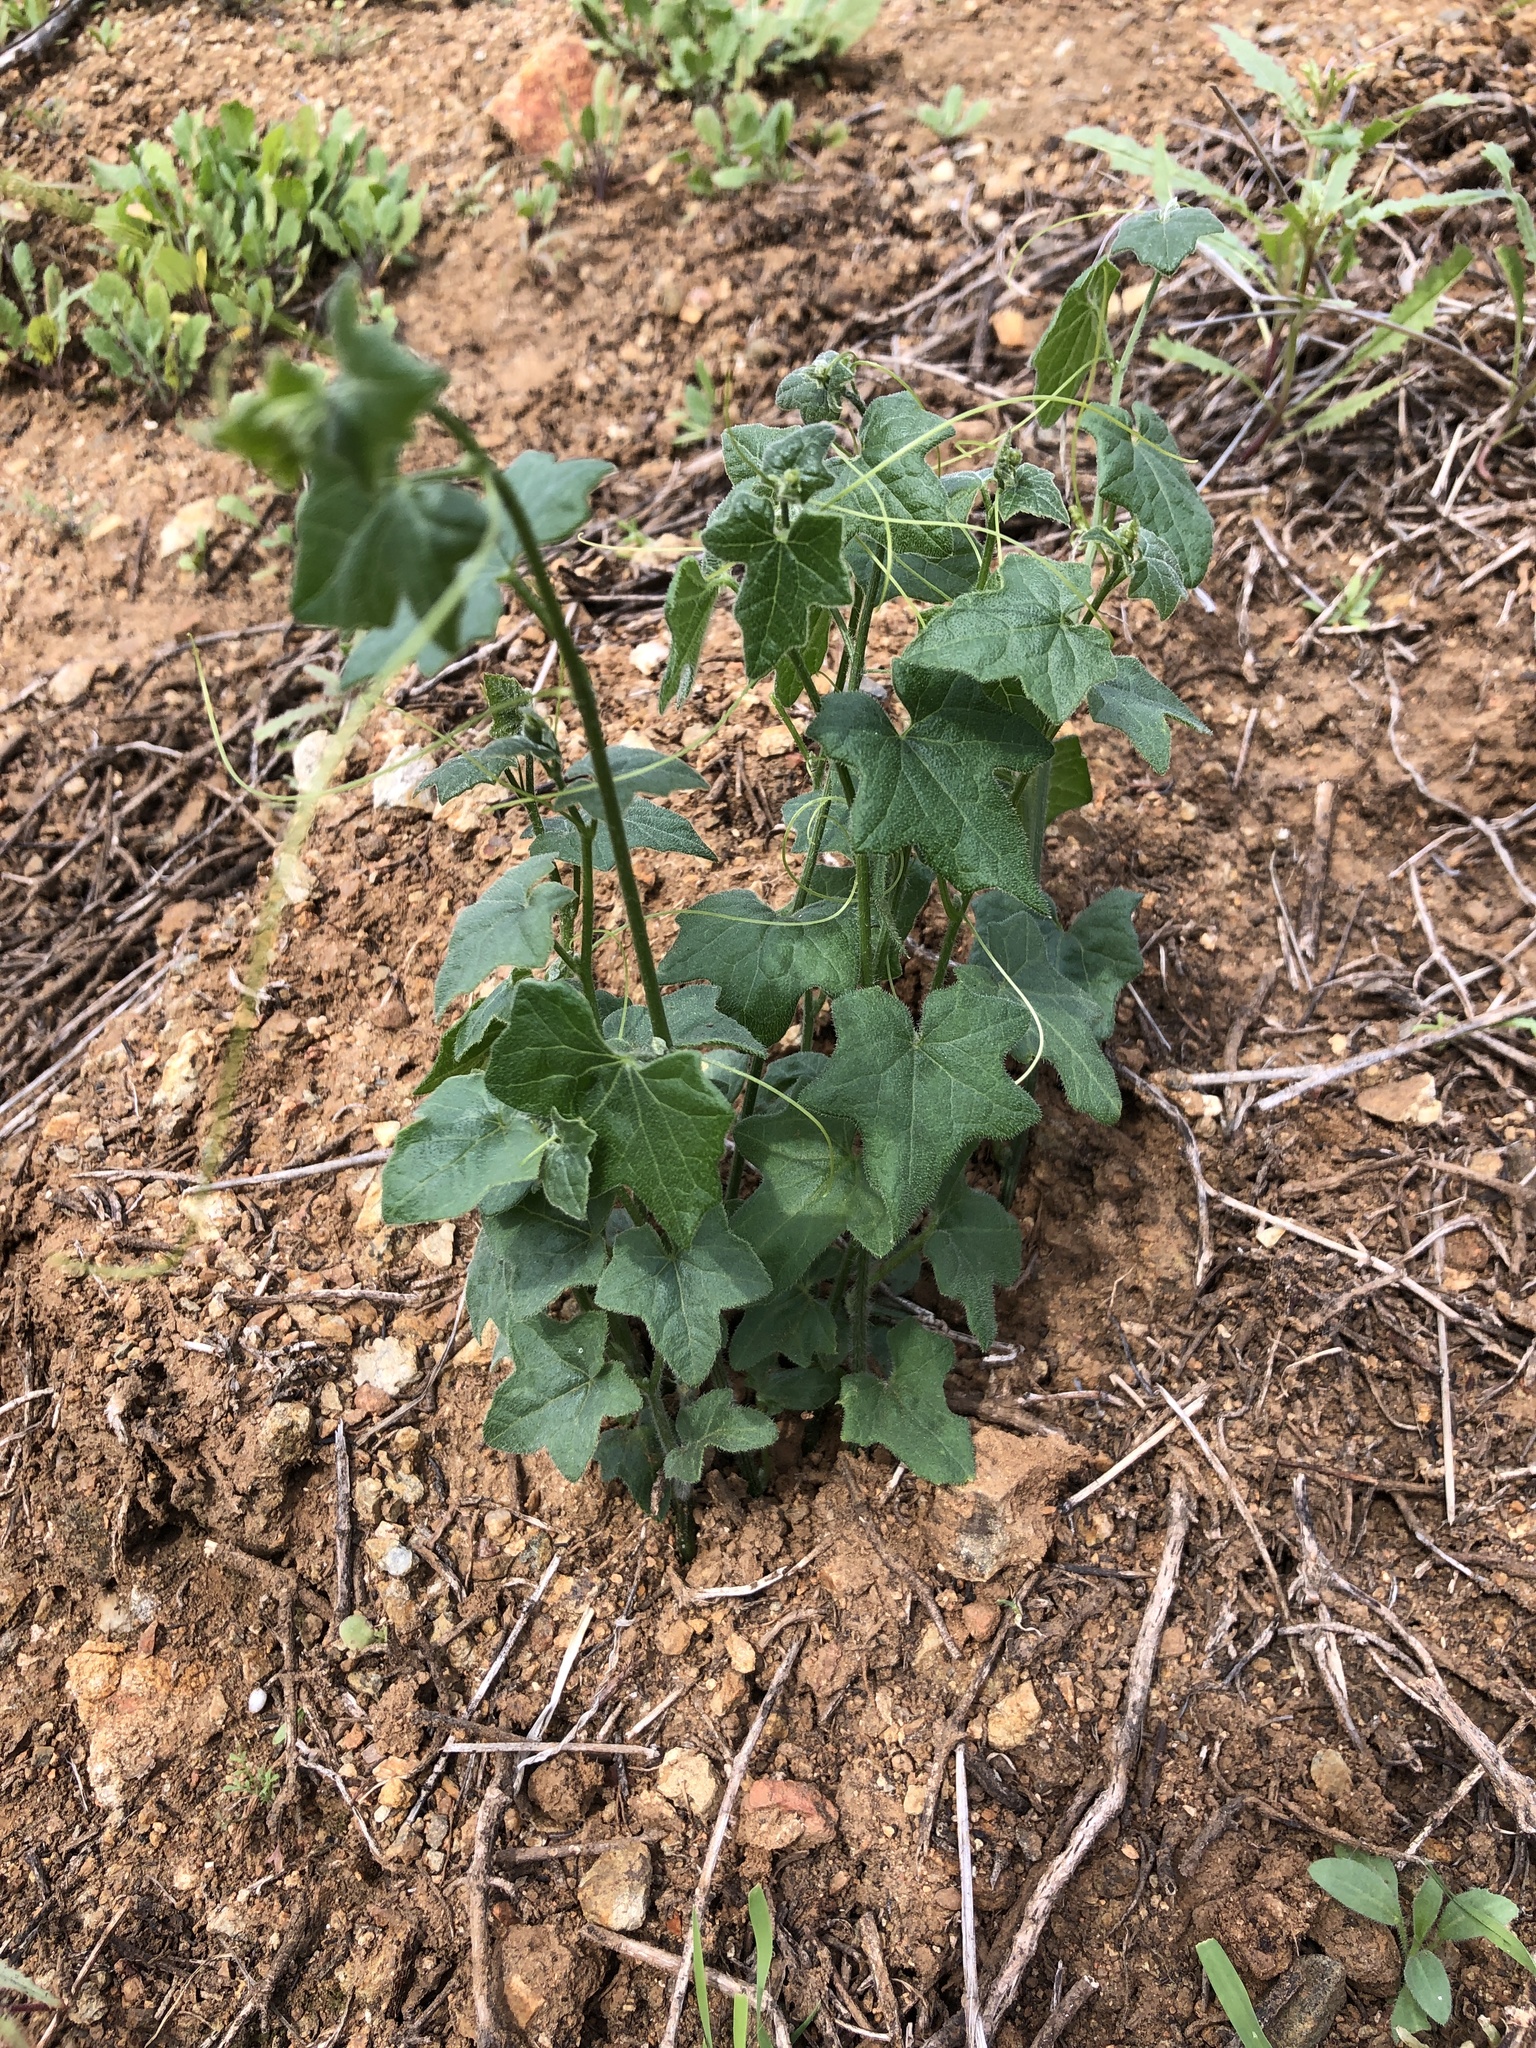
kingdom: Plantae
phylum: Tracheophyta
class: Magnoliopsida
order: Cucurbitales
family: Cucurbitaceae
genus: Marah
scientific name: Marah macrocarpa
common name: Cucamonga manroot
